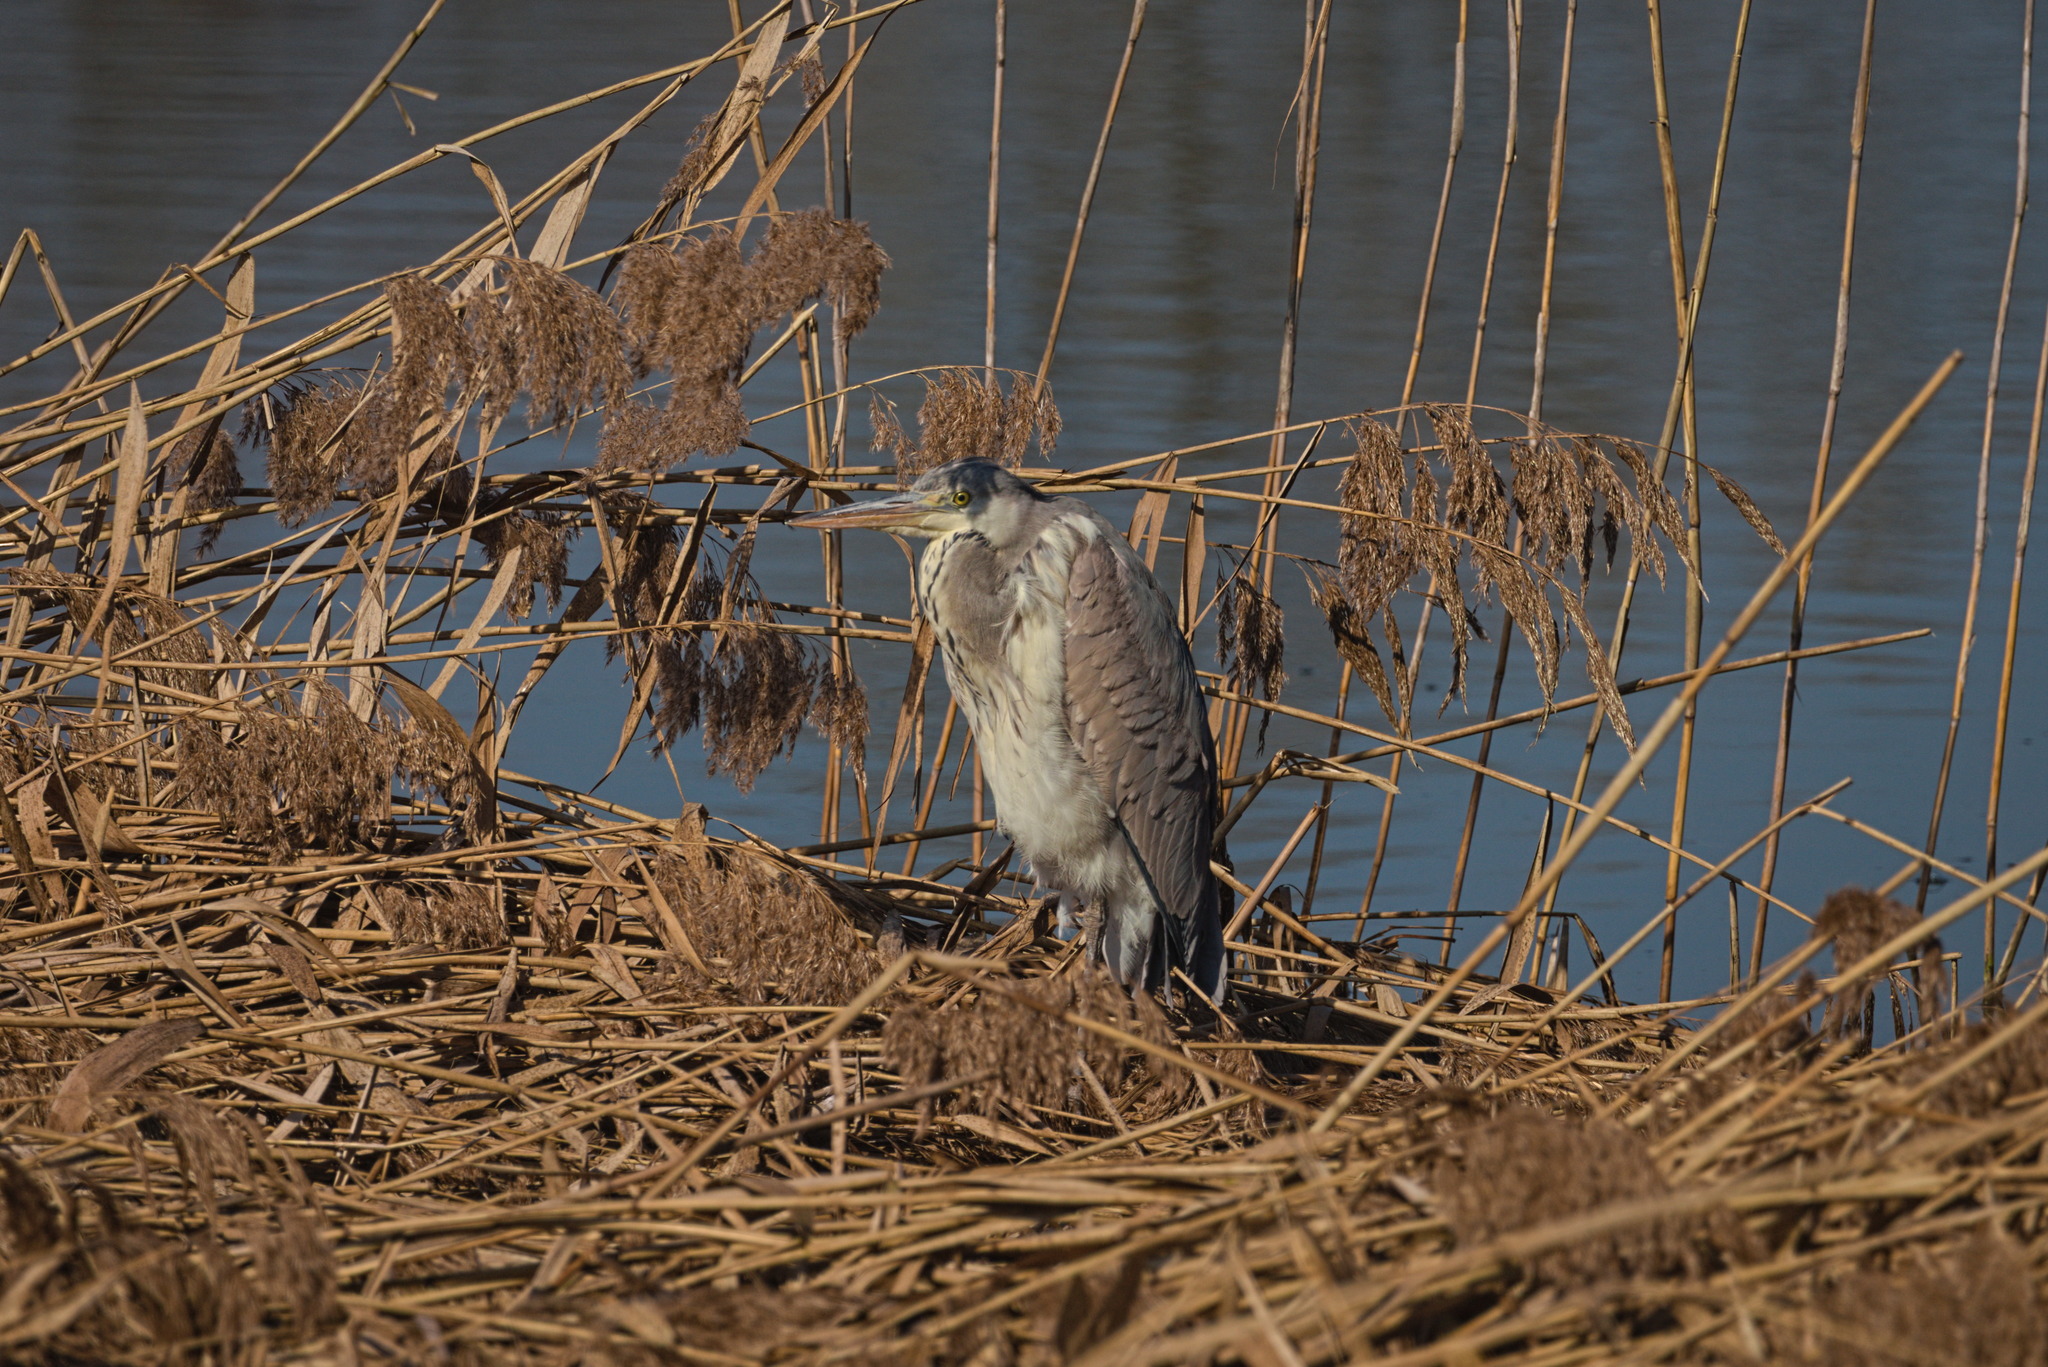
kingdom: Animalia
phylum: Chordata
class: Aves
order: Pelecaniformes
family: Ardeidae
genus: Ardea
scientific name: Ardea cinerea
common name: Grey heron
